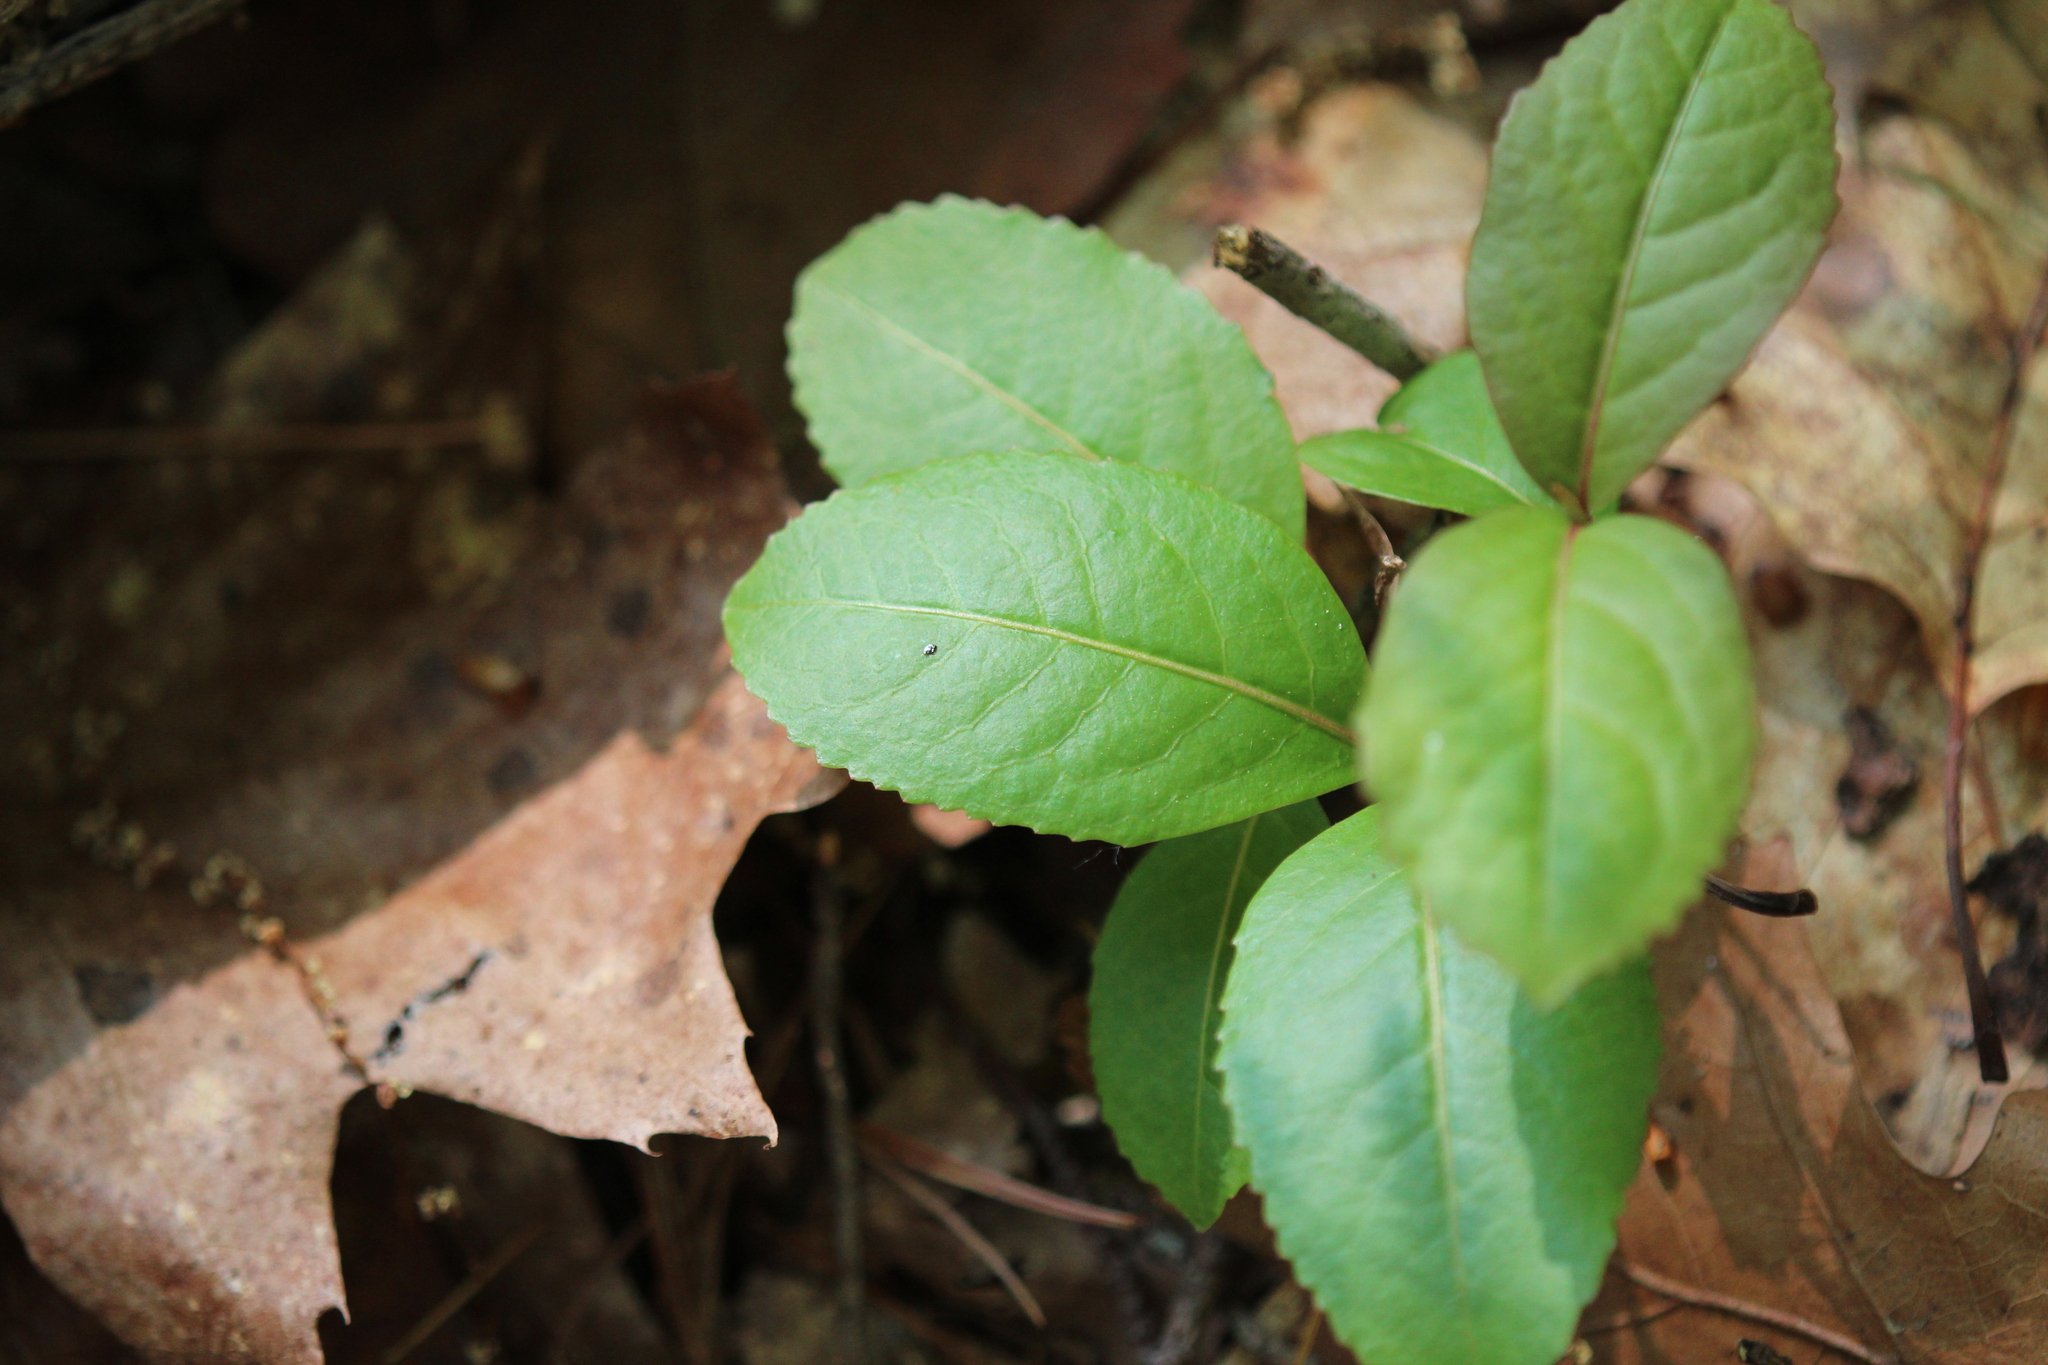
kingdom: Plantae
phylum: Tracheophyta
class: Magnoliopsida
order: Dipsacales
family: Viburnaceae
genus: Viburnum
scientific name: Viburnum cassinoides
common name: Swamp haw
